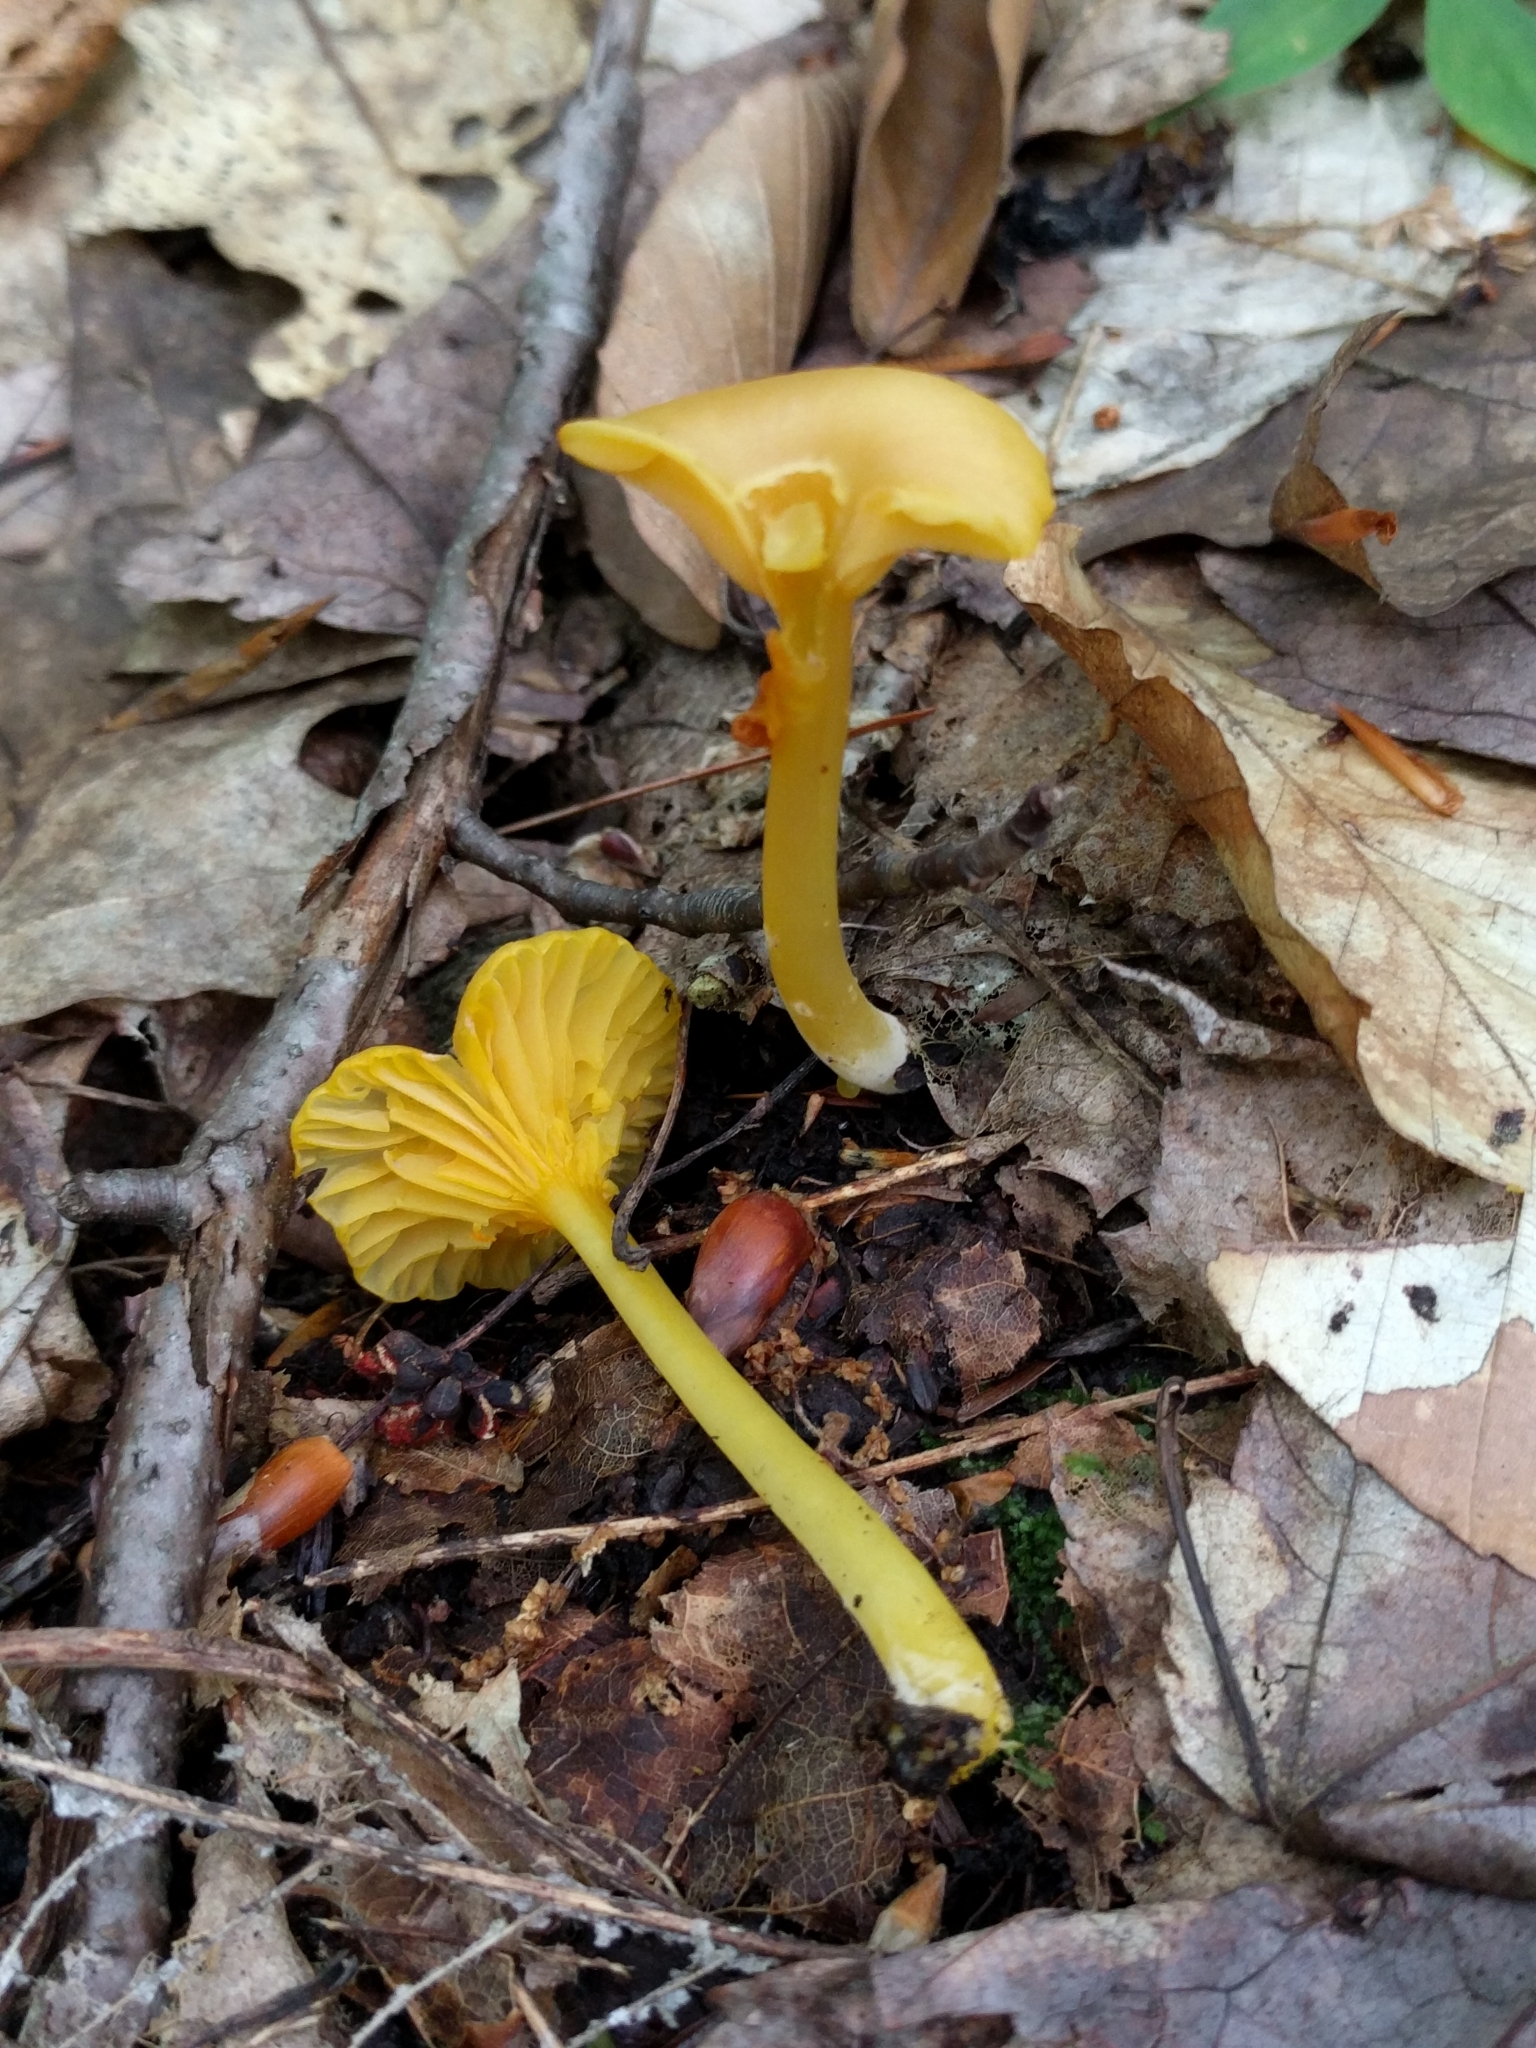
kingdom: Fungi
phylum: Basidiomycota
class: Agaricomycetes
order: Agaricales
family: Hygrophoraceae
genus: Gloioxanthomyces
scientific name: Gloioxanthomyces nitidus
